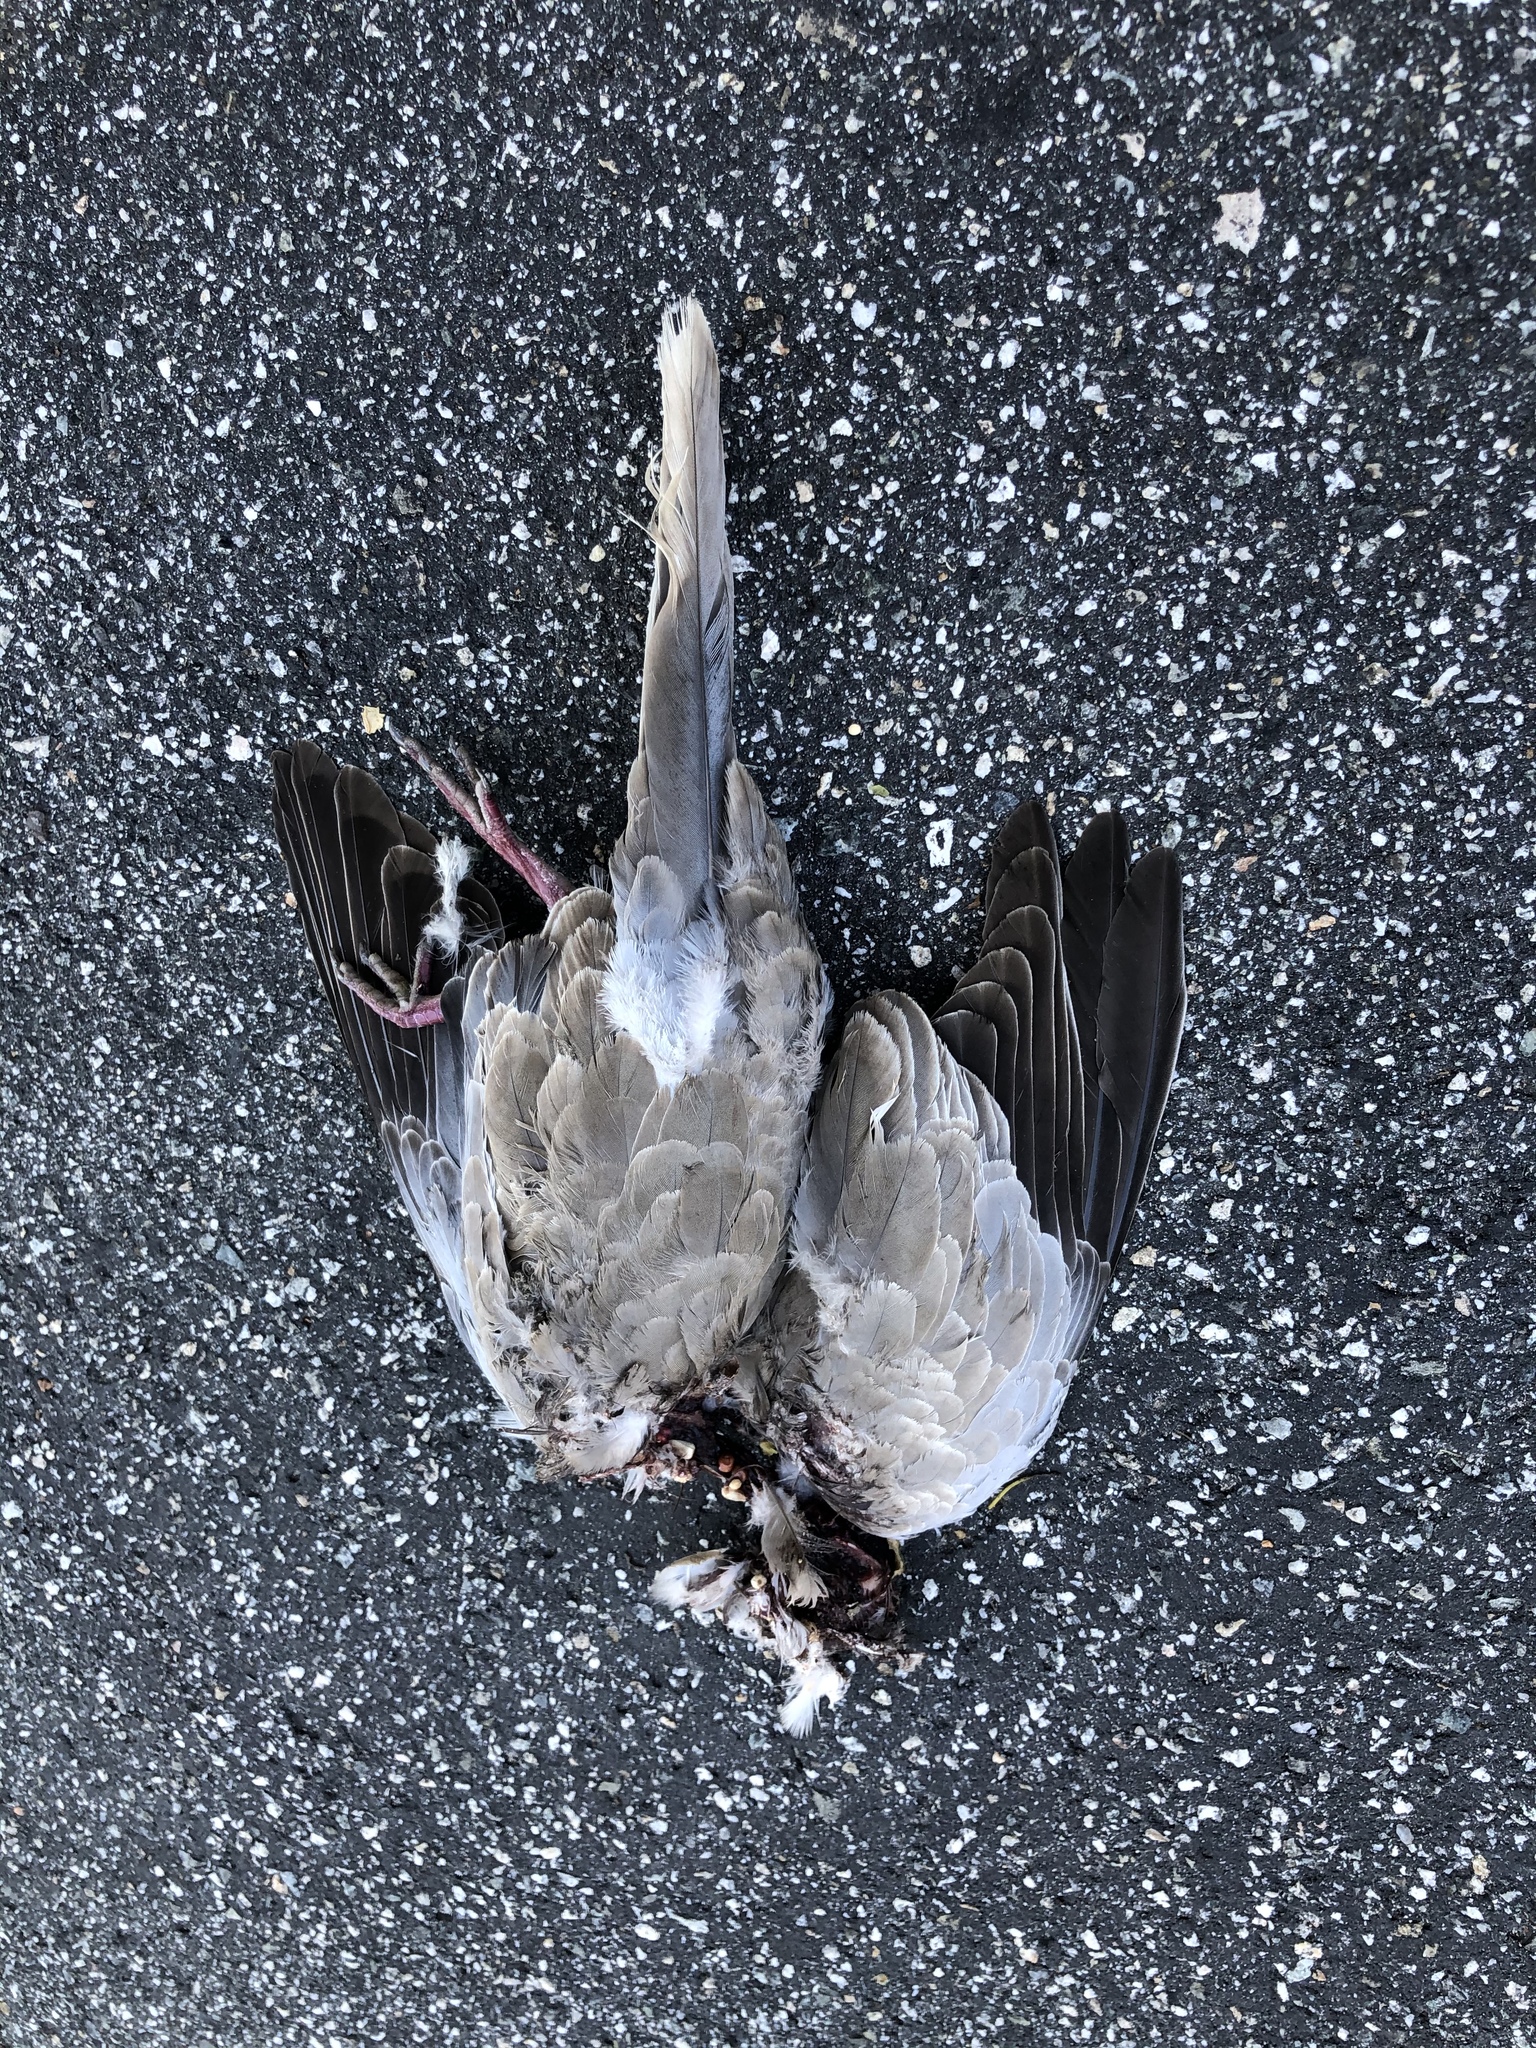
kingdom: Animalia
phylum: Chordata
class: Aves
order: Columbiformes
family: Columbidae
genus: Streptopelia
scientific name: Streptopelia decaocto
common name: Eurasian collared dove
